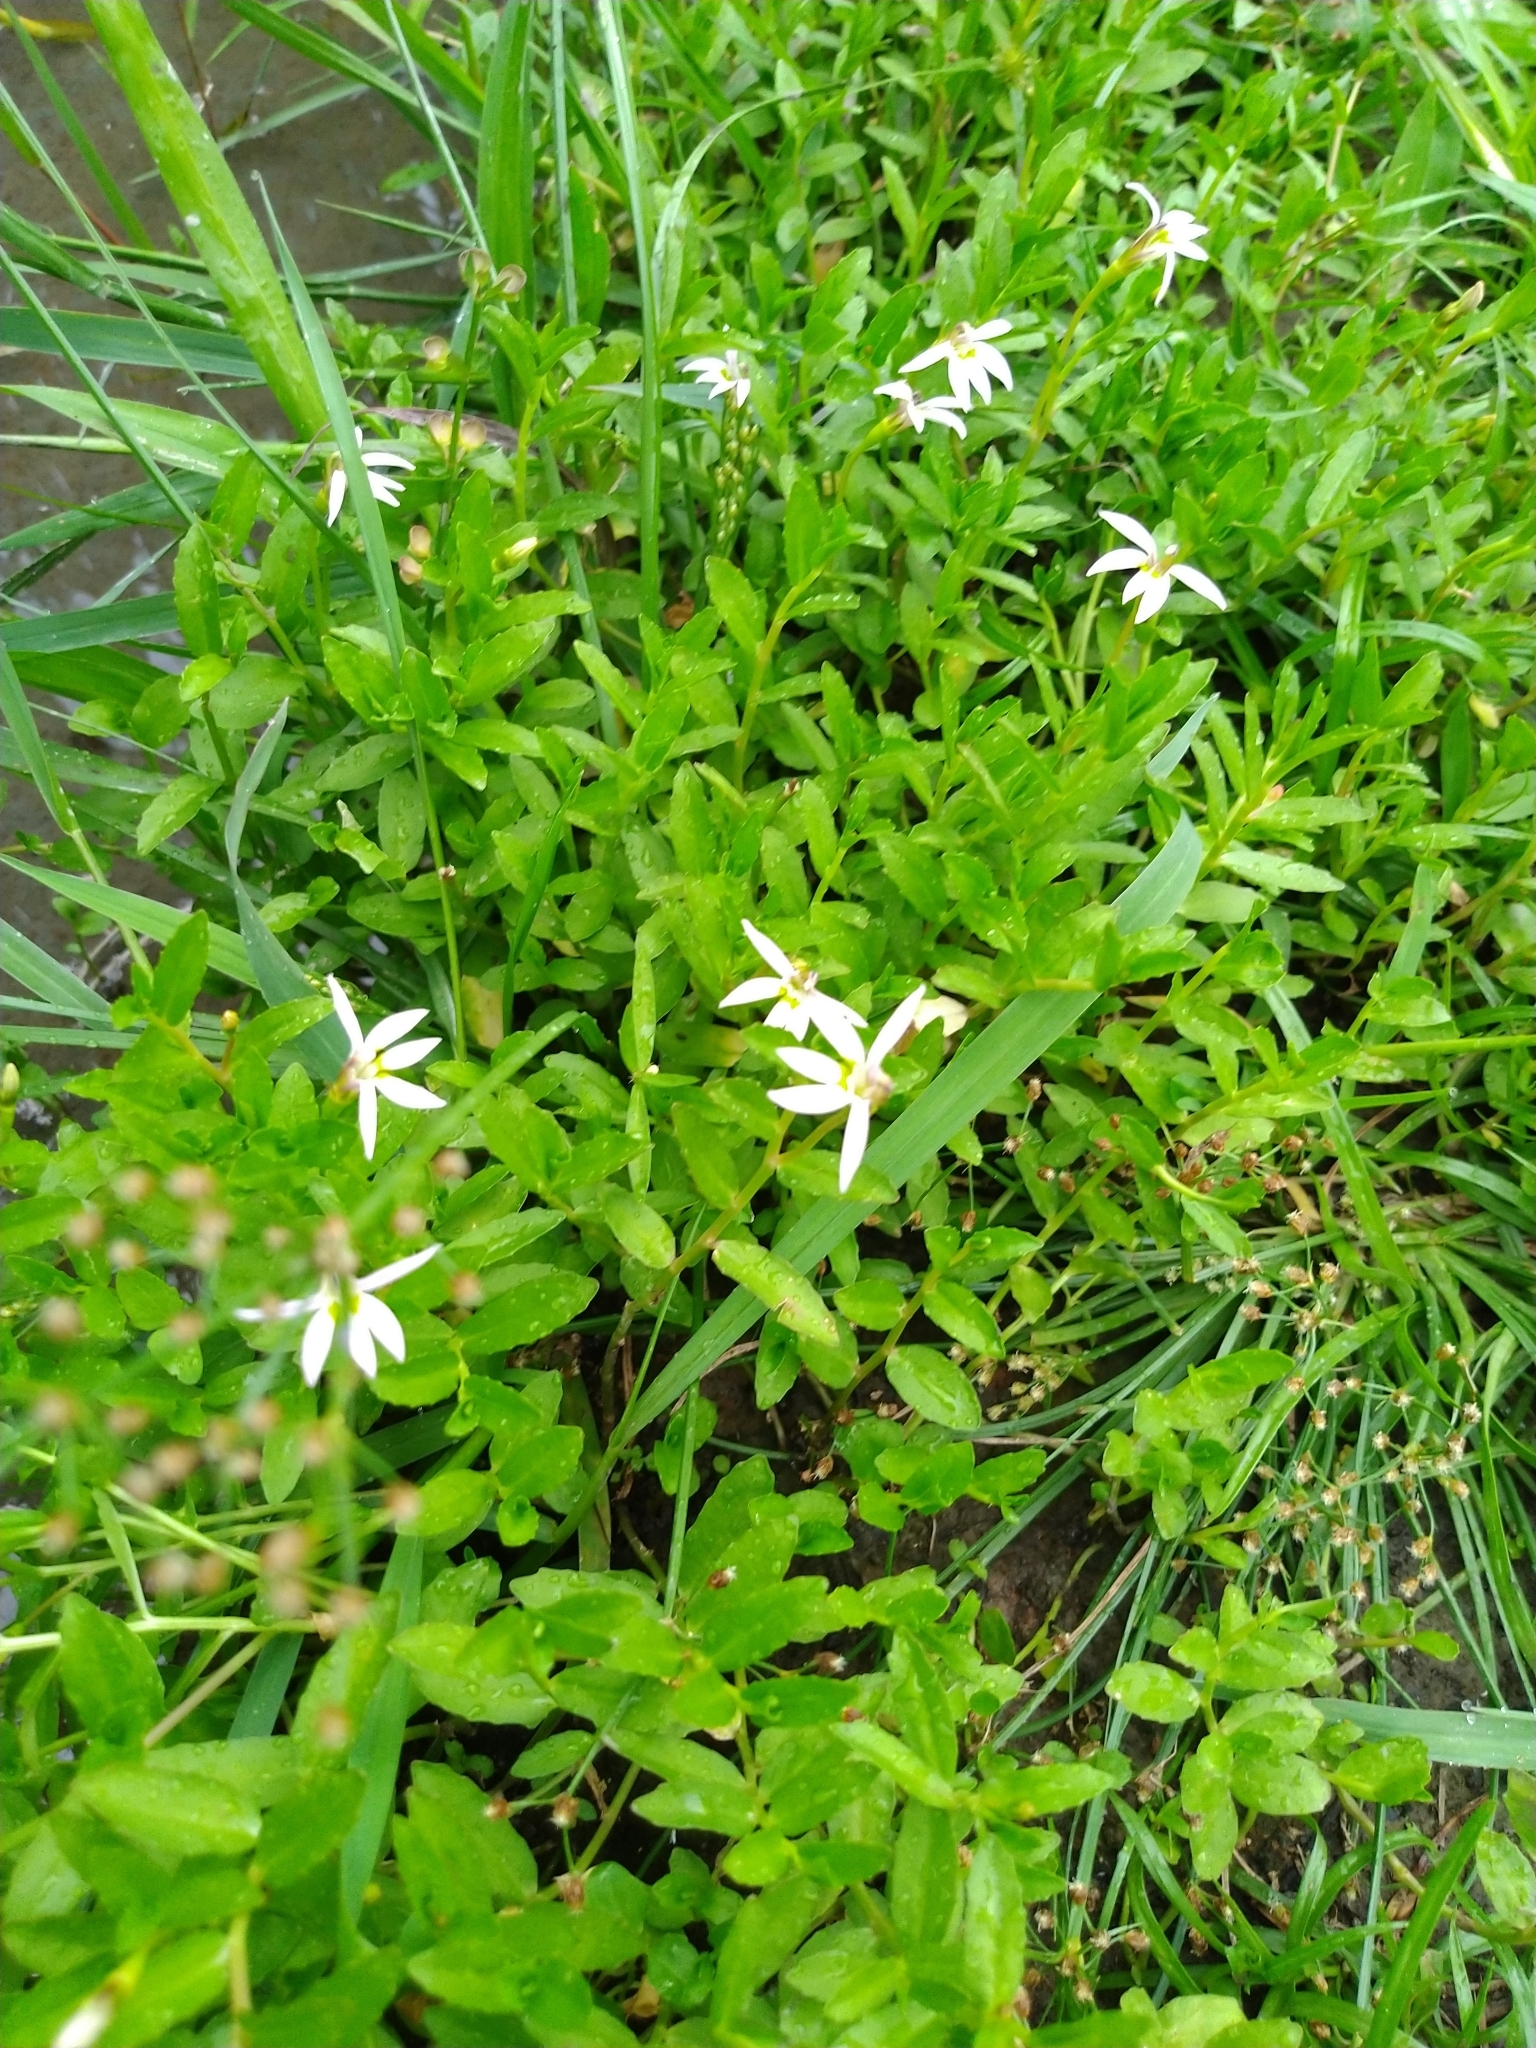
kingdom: Plantae
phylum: Tracheophyta
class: Magnoliopsida
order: Asterales
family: Campanulaceae
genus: Lobelia
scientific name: Lobelia chinensis
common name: Chinese lobelia
